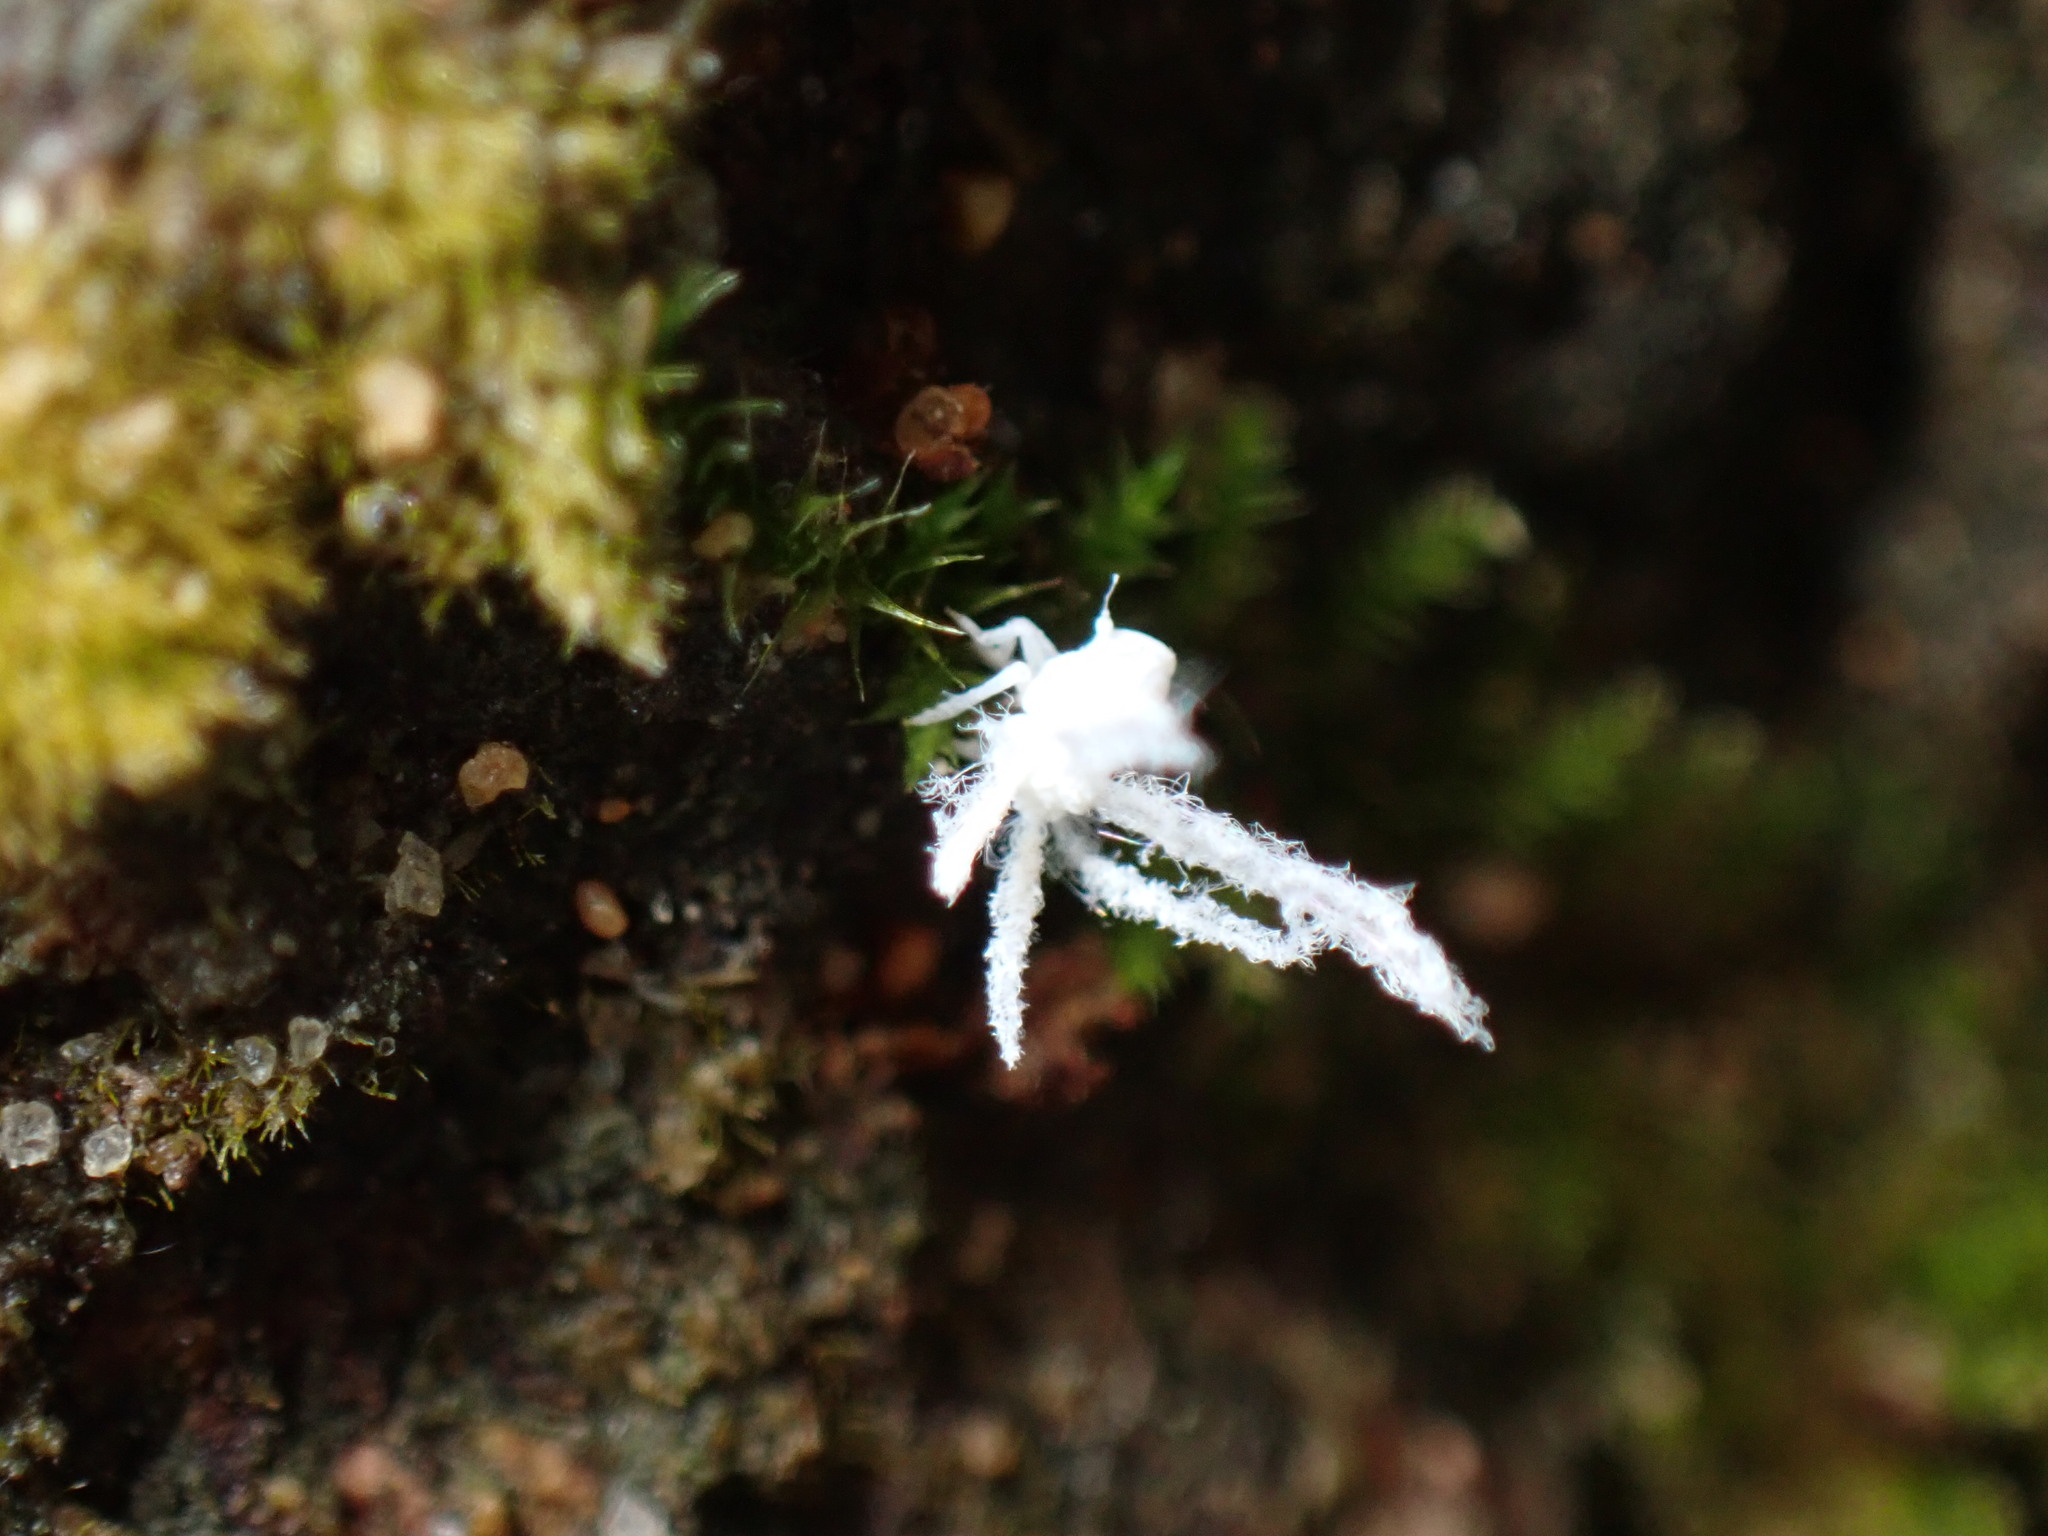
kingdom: Animalia
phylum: Arthropoda
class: Insecta
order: Hemiptera
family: Ricaniidae
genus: Ricania
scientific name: Ricania guttata
